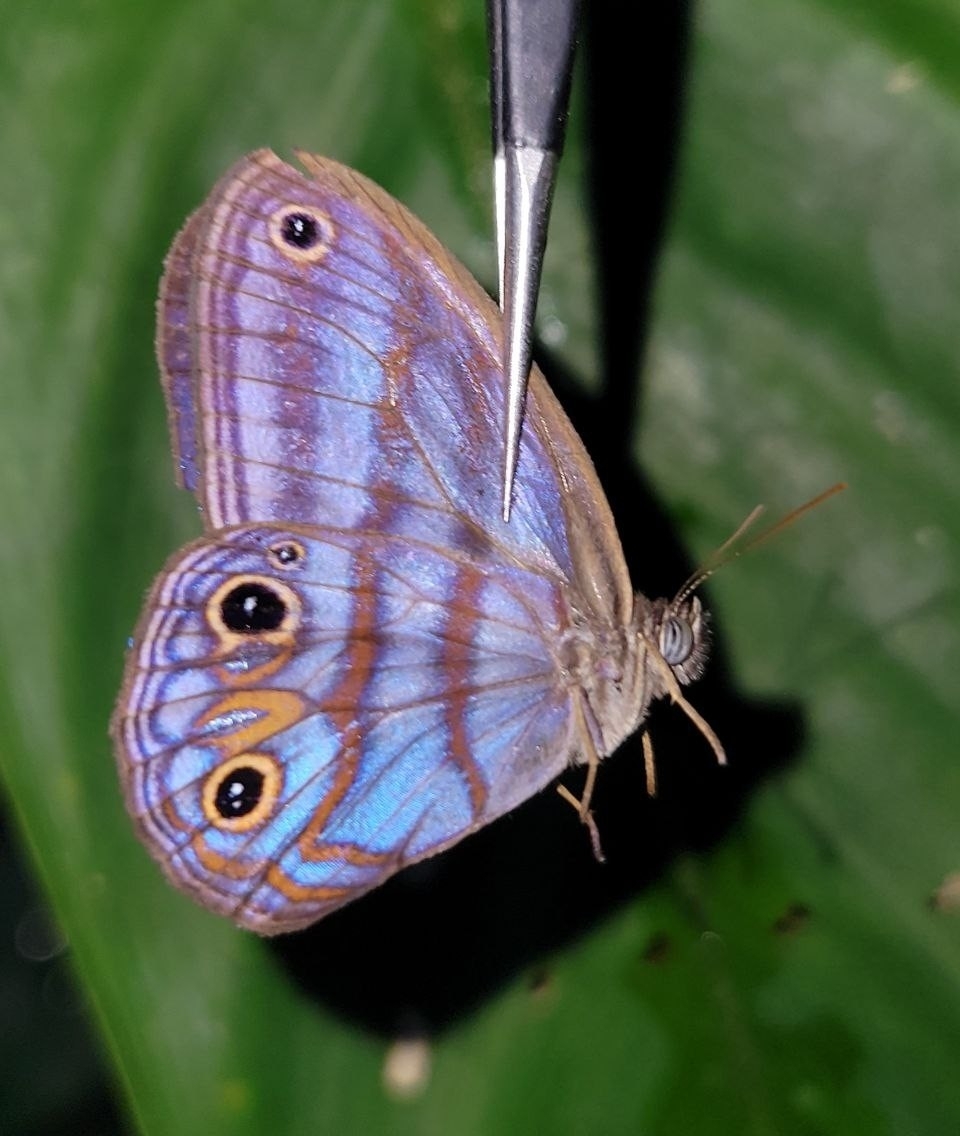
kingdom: Animalia
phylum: Arthropoda
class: Insecta
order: Lepidoptera
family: Nymphalidae
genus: Pseudeuptychia
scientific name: Pseudeuptychia
